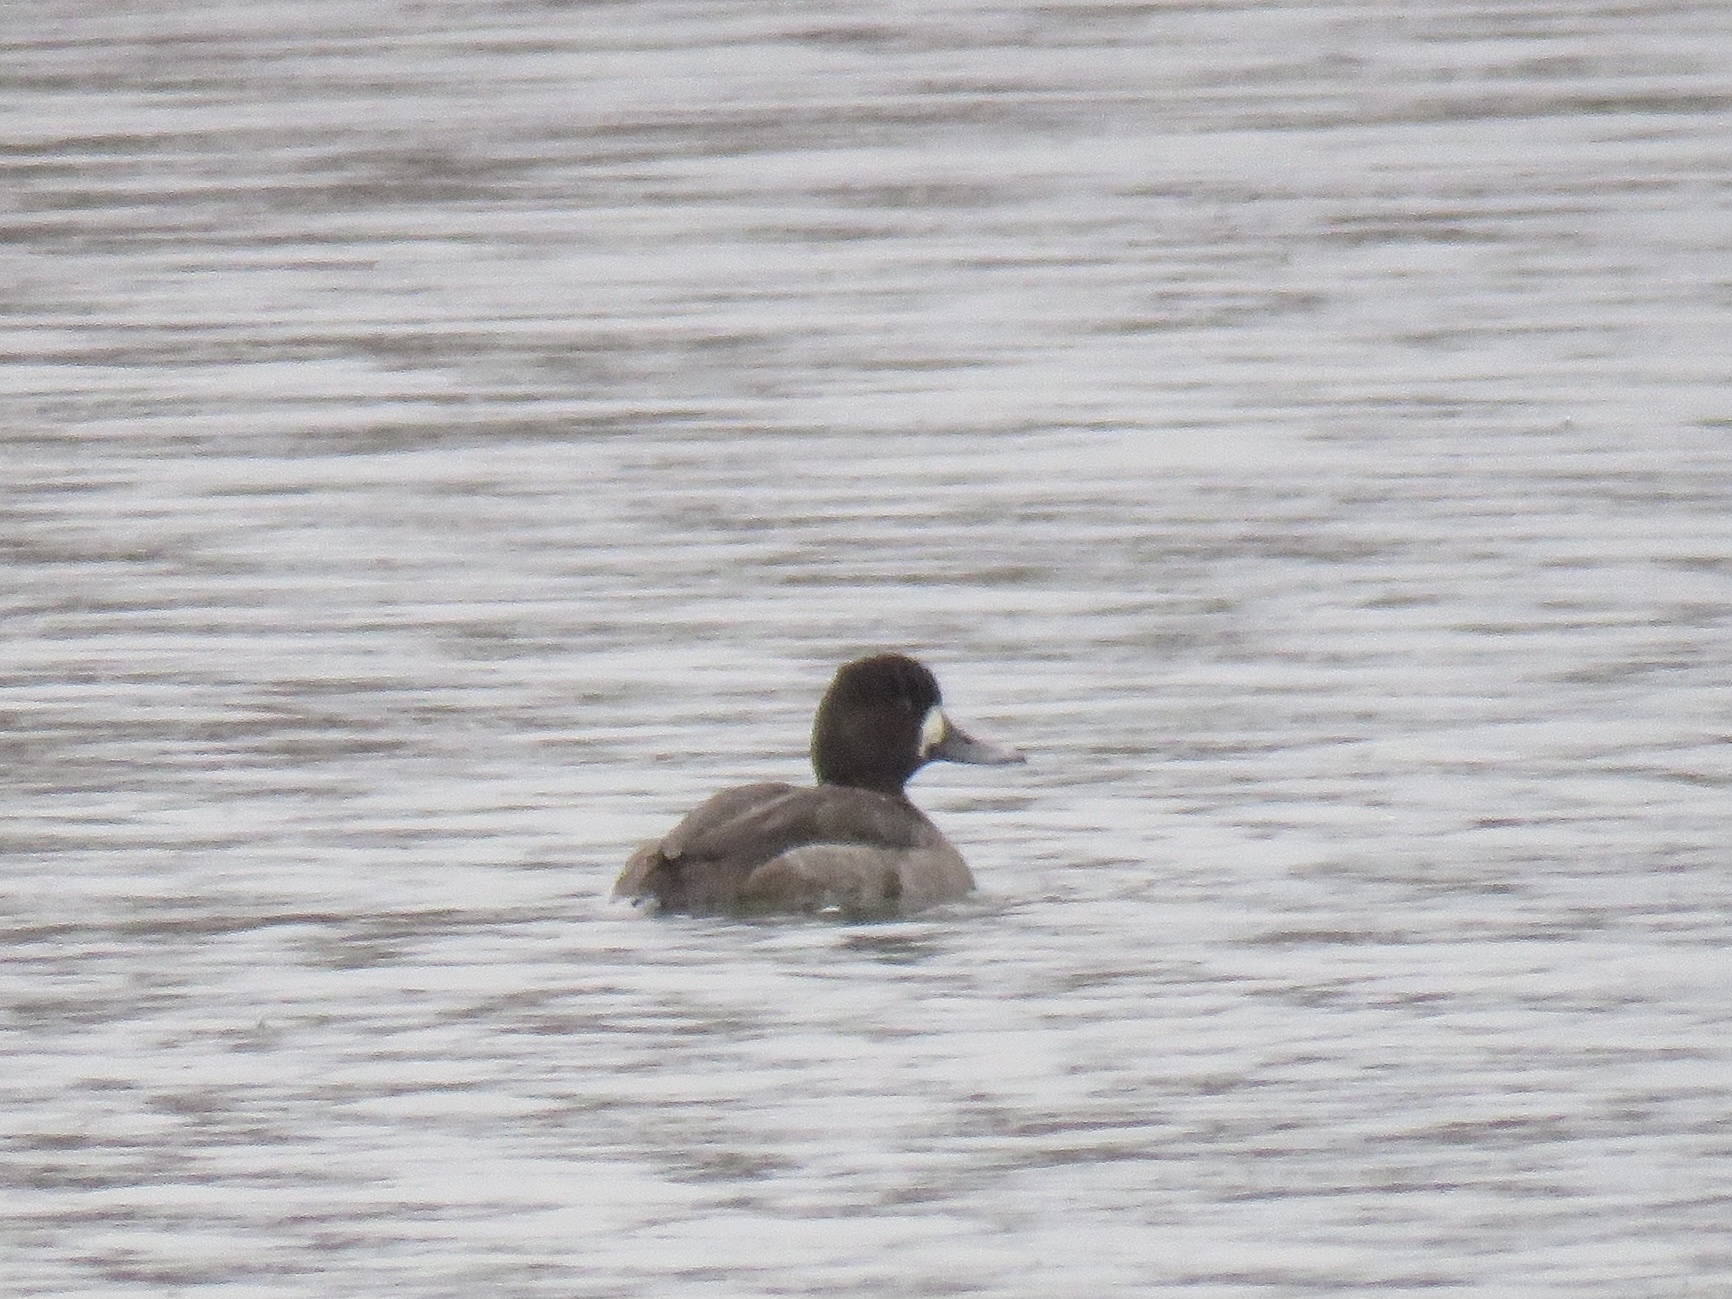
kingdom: Animalia
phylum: Chordata
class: Aves
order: Anseriformes
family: Anatidae
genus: Aythya
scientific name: Aythya affinis
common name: Lesser scaup
